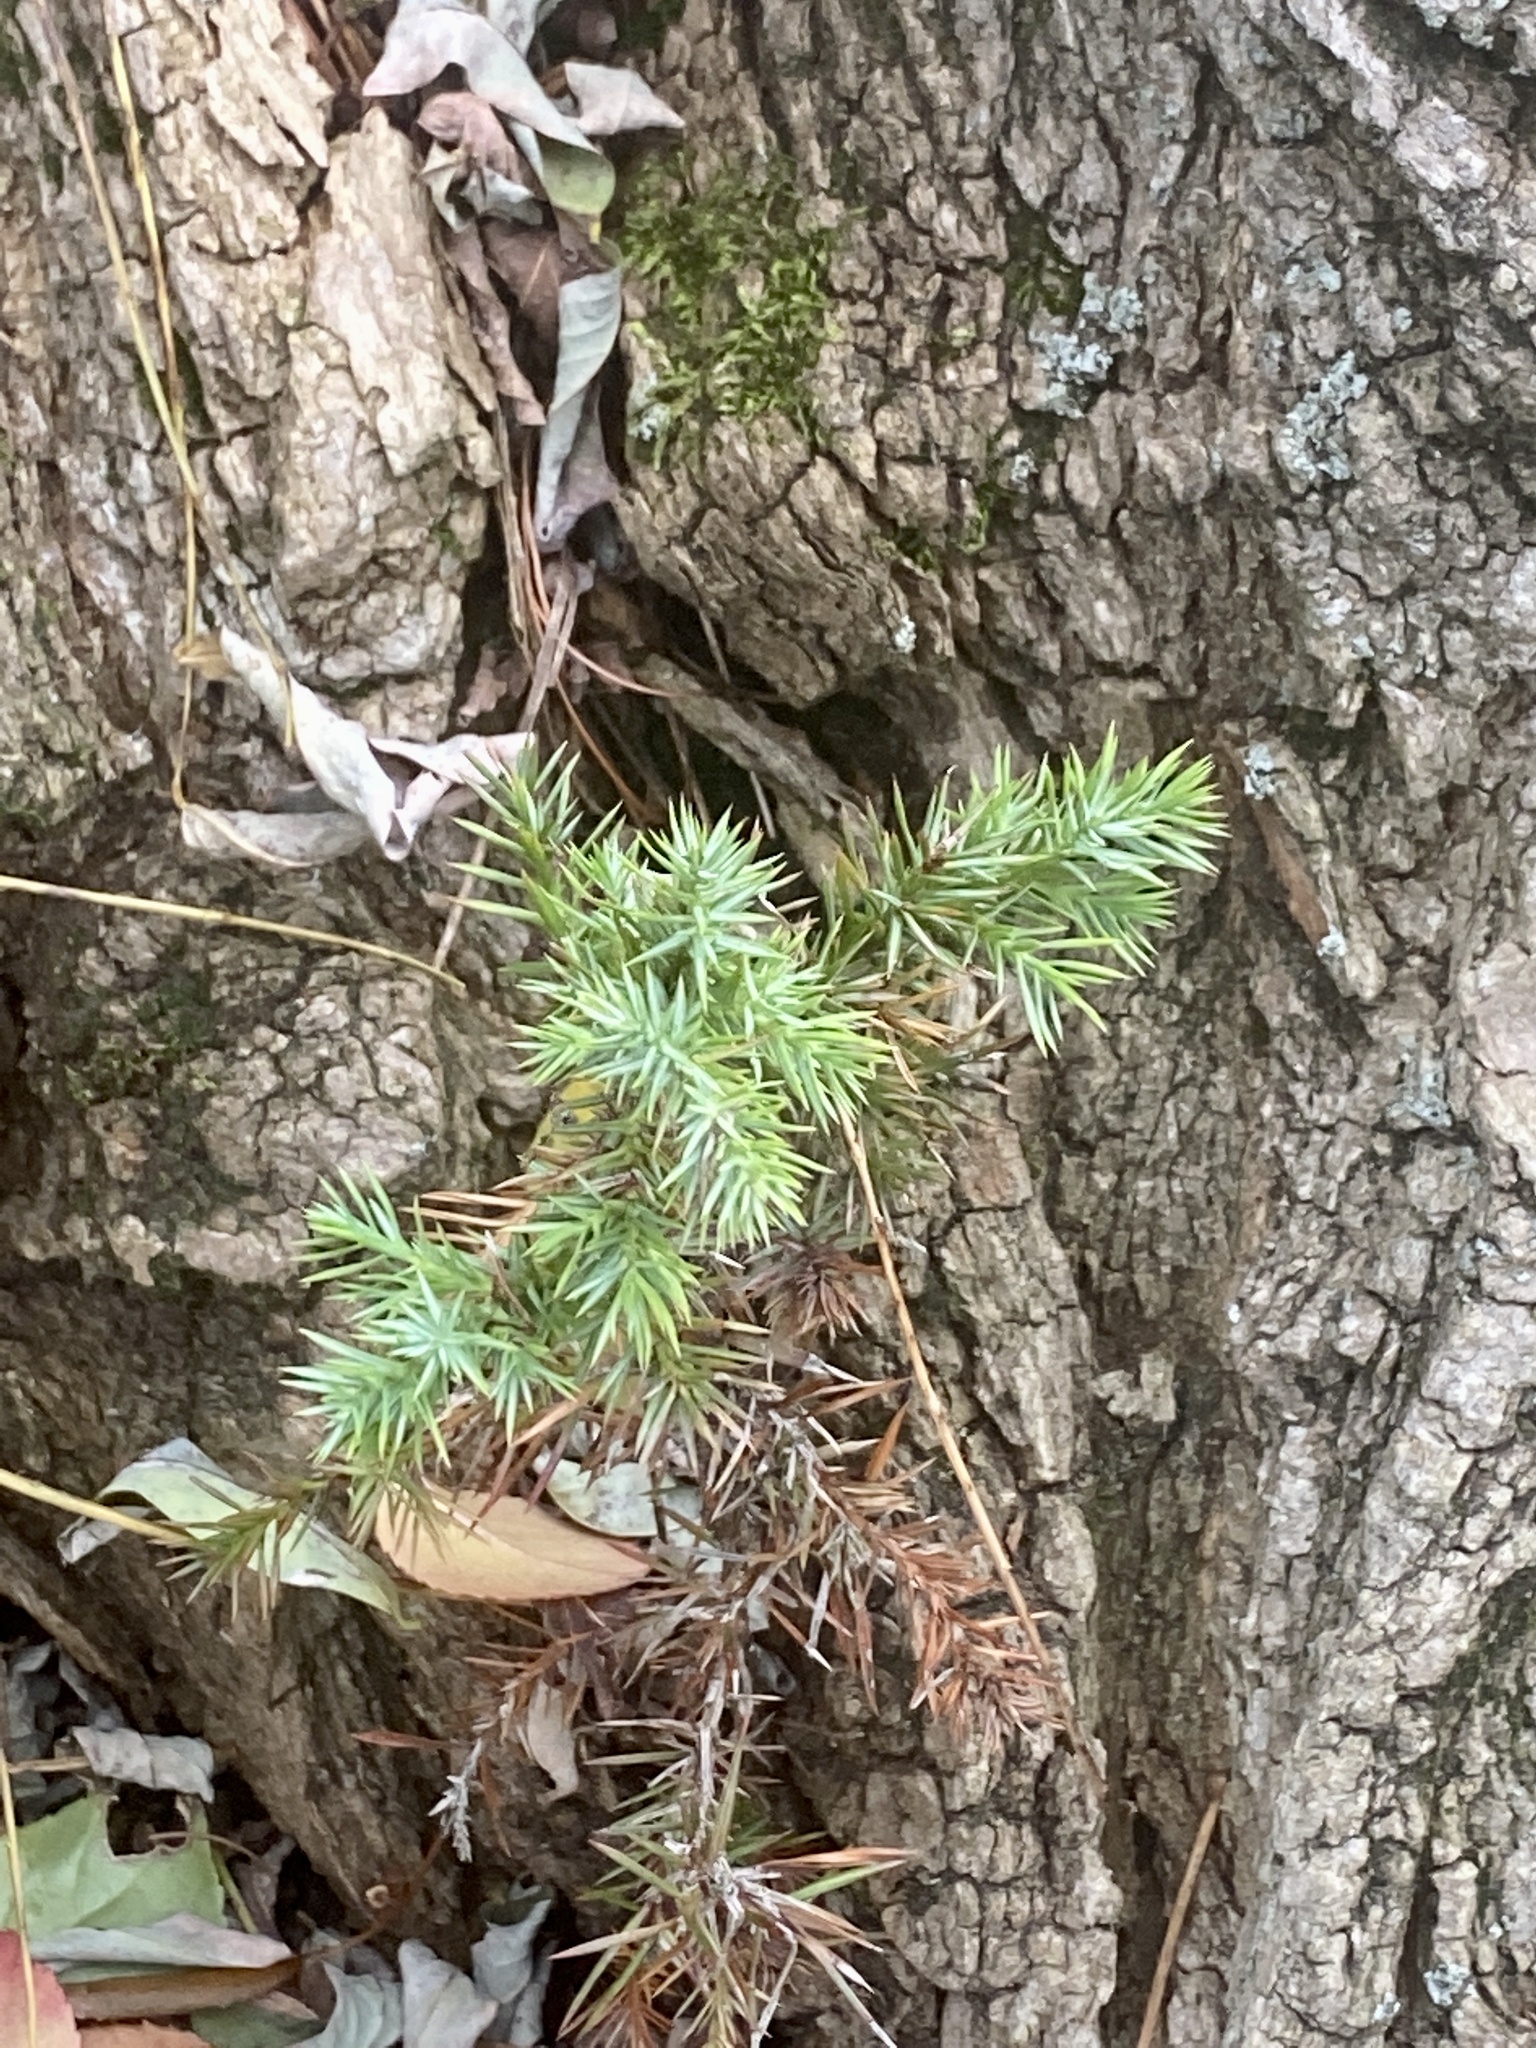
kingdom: Plantae
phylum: Tracheophyta
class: Pinopsida
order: Pinales
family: Cupressaceae
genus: Juniperus
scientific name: Juniperus virginiana
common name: Red juniper
